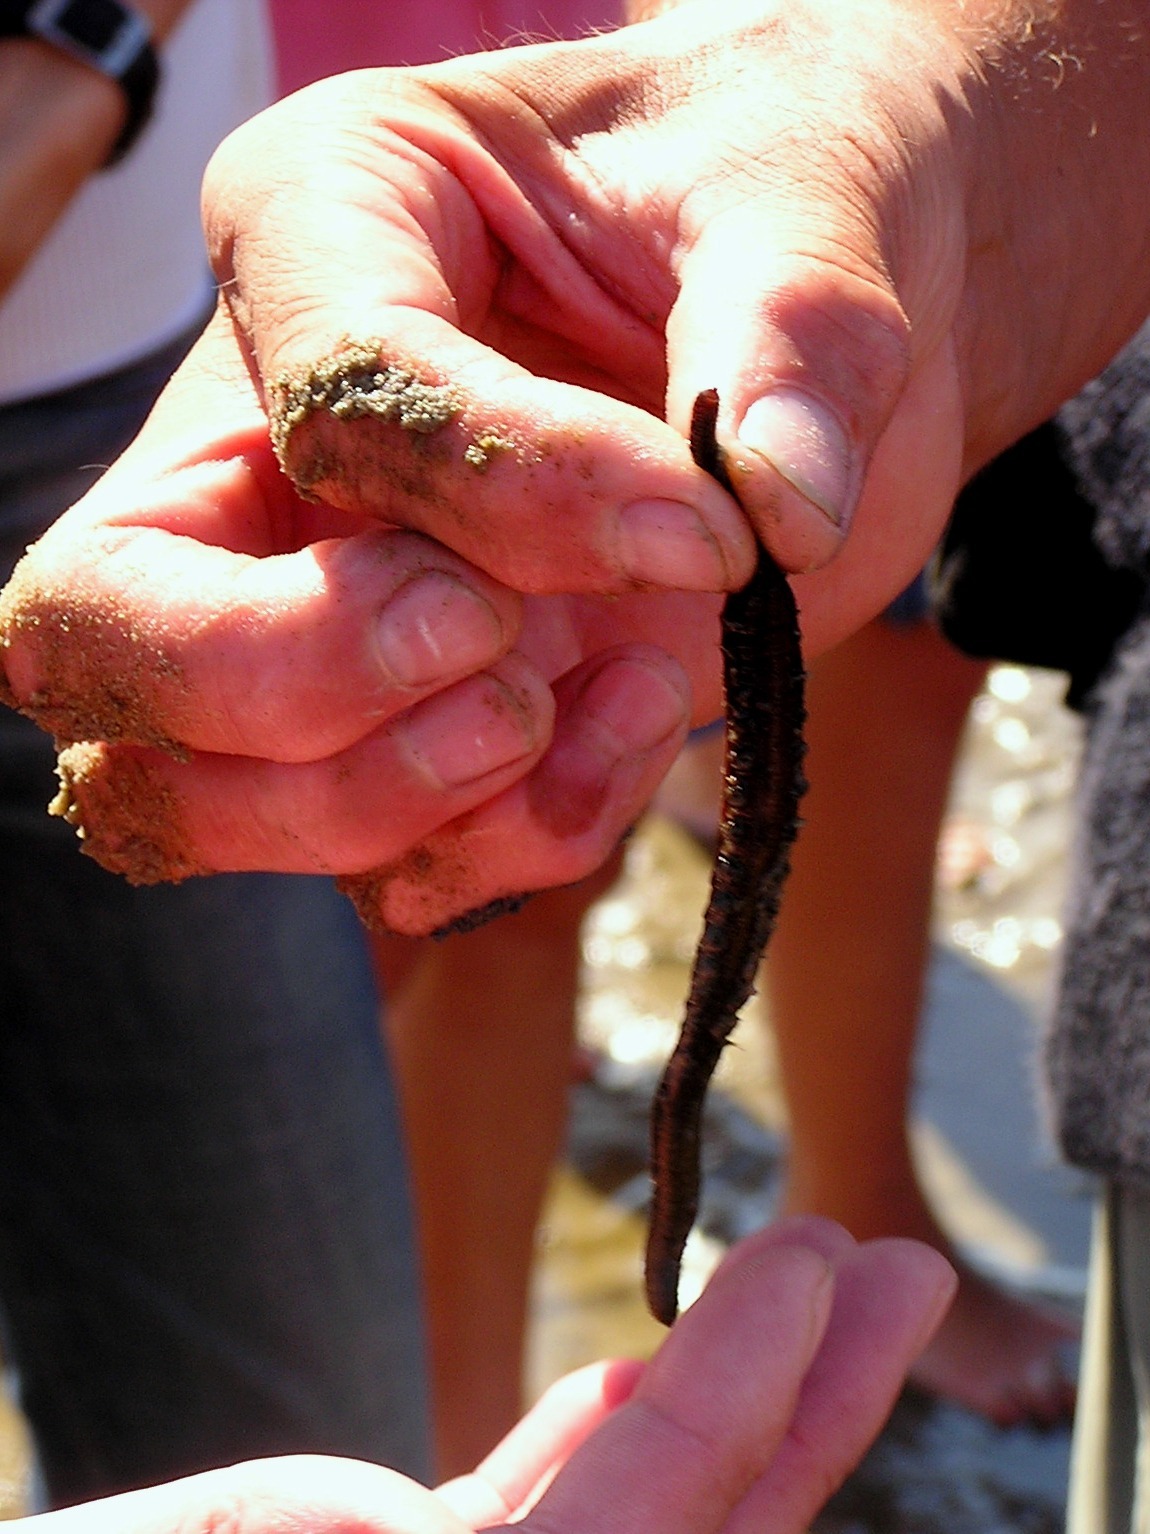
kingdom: Animalia
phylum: Annelida
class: Polychaeta
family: Arenicolidae
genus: Arenicola
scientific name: Arenicola marina
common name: Blow lugworm
